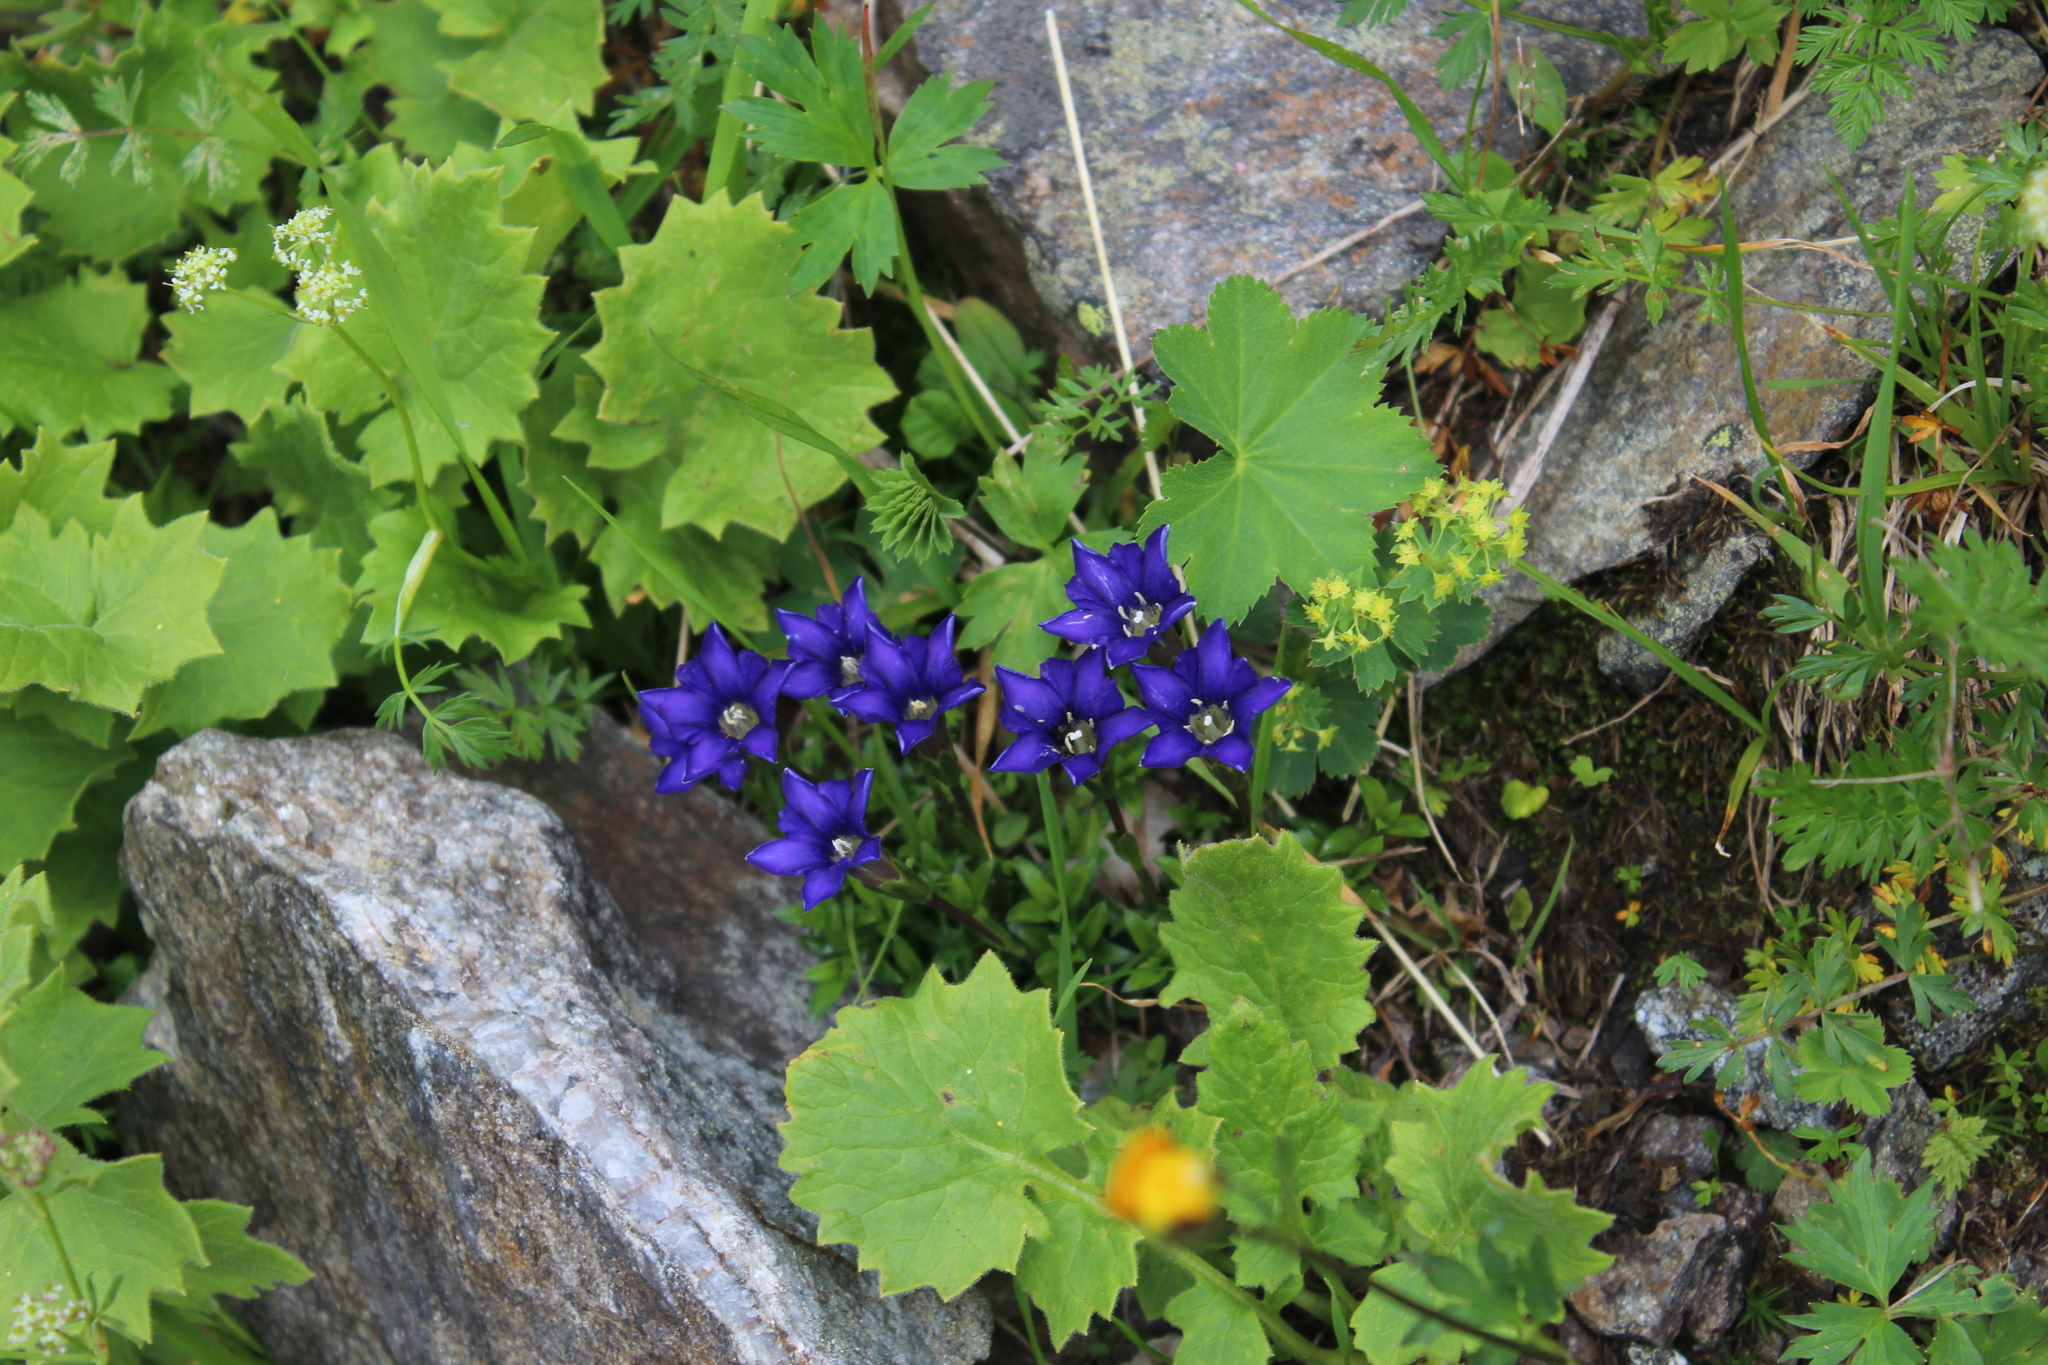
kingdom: Plantae
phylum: Tracheophyta
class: Magnoliopsida
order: Gentianales
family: Gentianaceae
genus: Gentiana
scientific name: Gentiana dshimilensis
